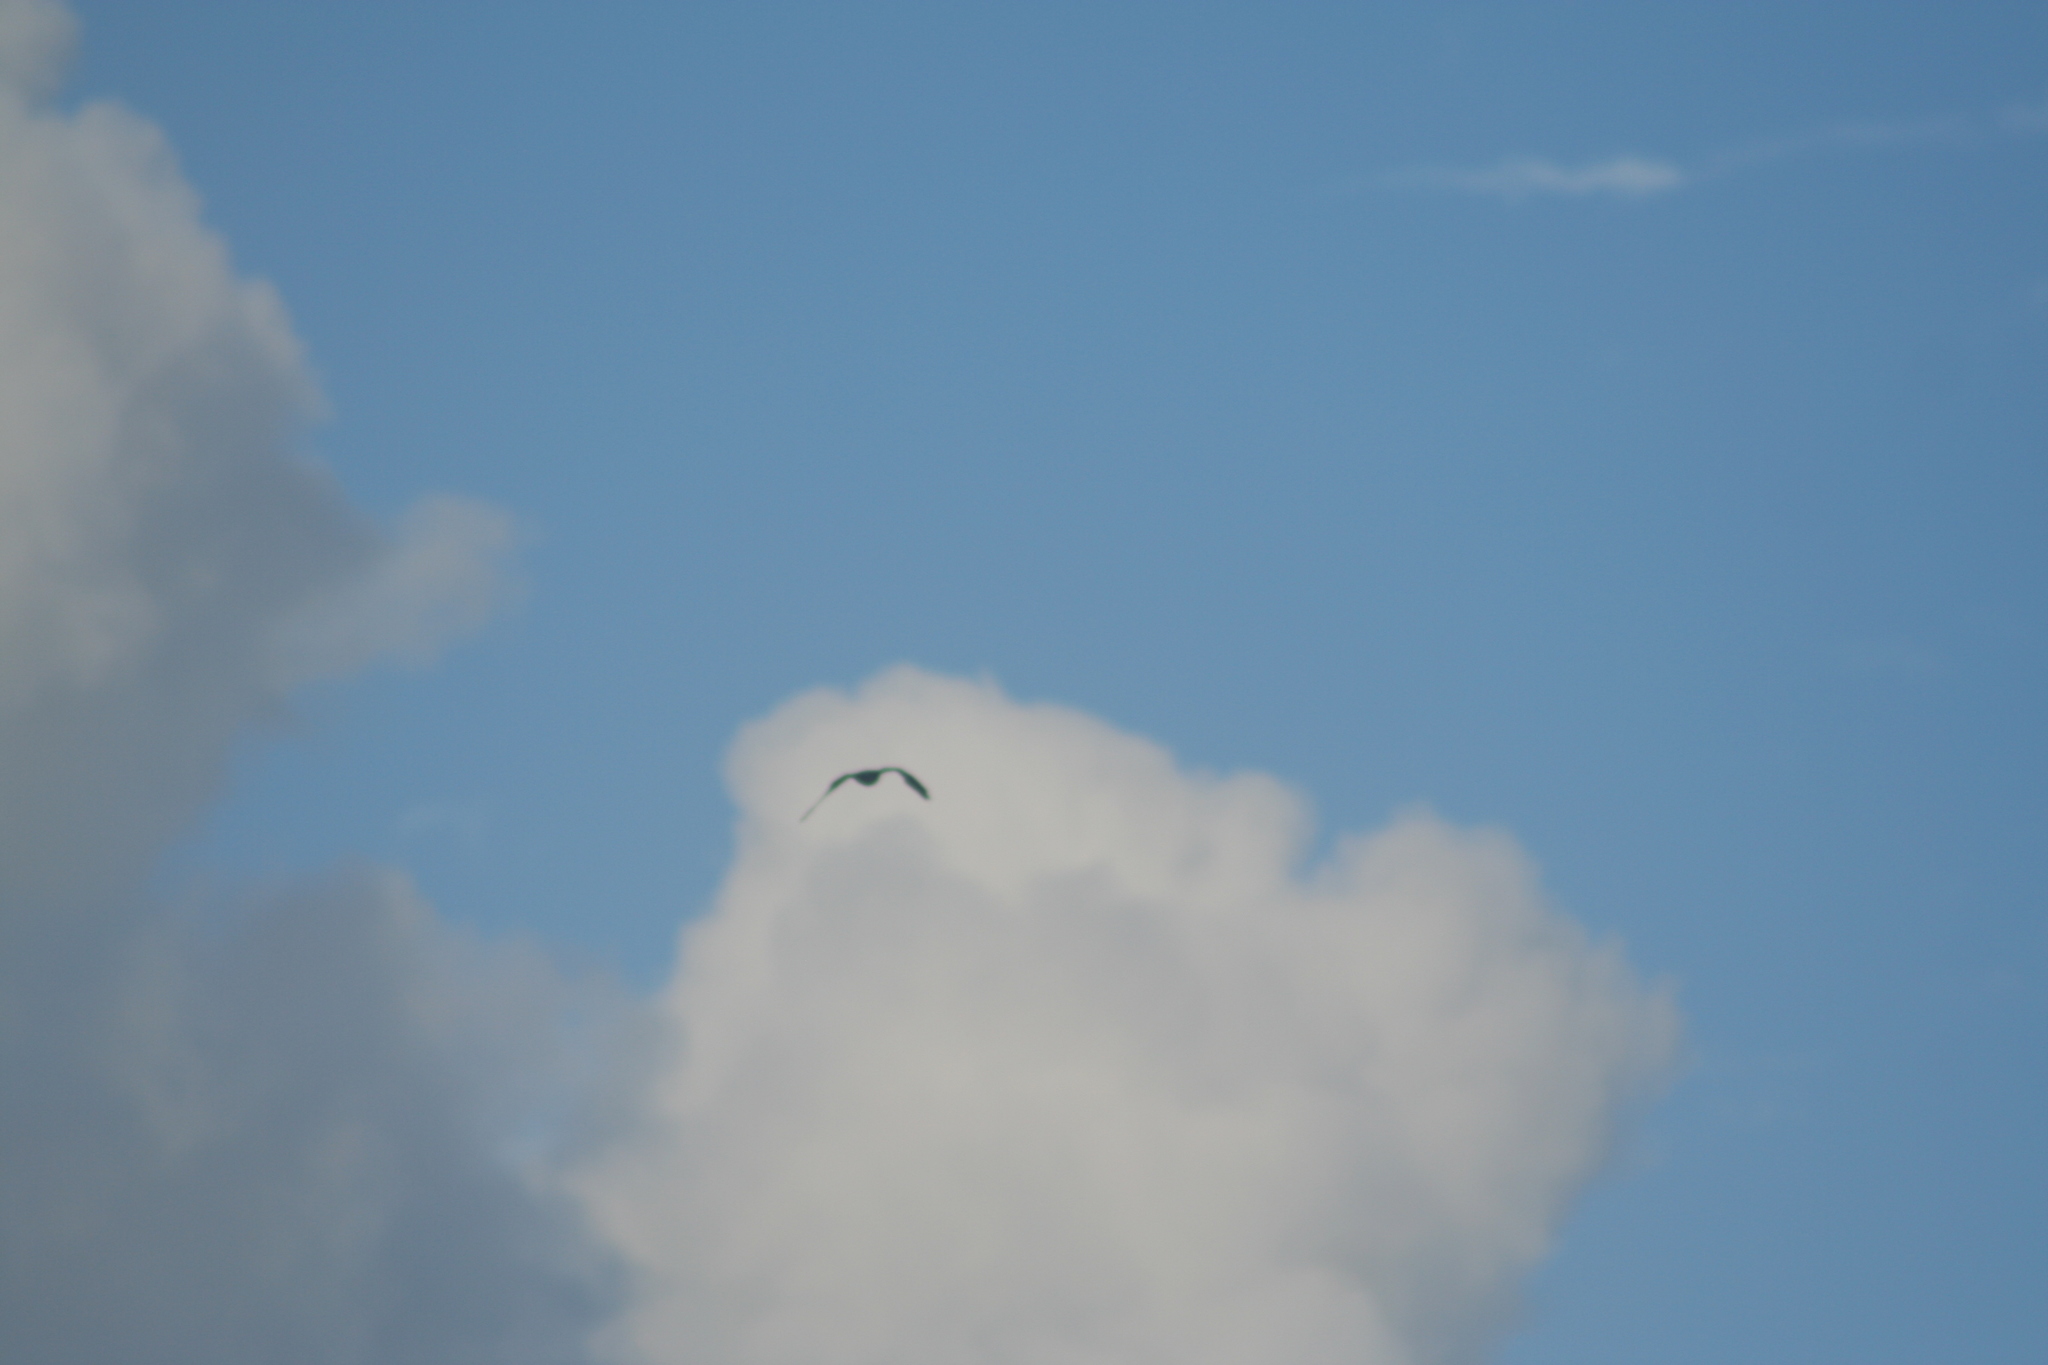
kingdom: Animalia
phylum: Chordata
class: Aves
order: Accipitriformes
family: Accipitridae
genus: Ictinia
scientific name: Ictinia mississippiensis
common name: Mississippi kite
